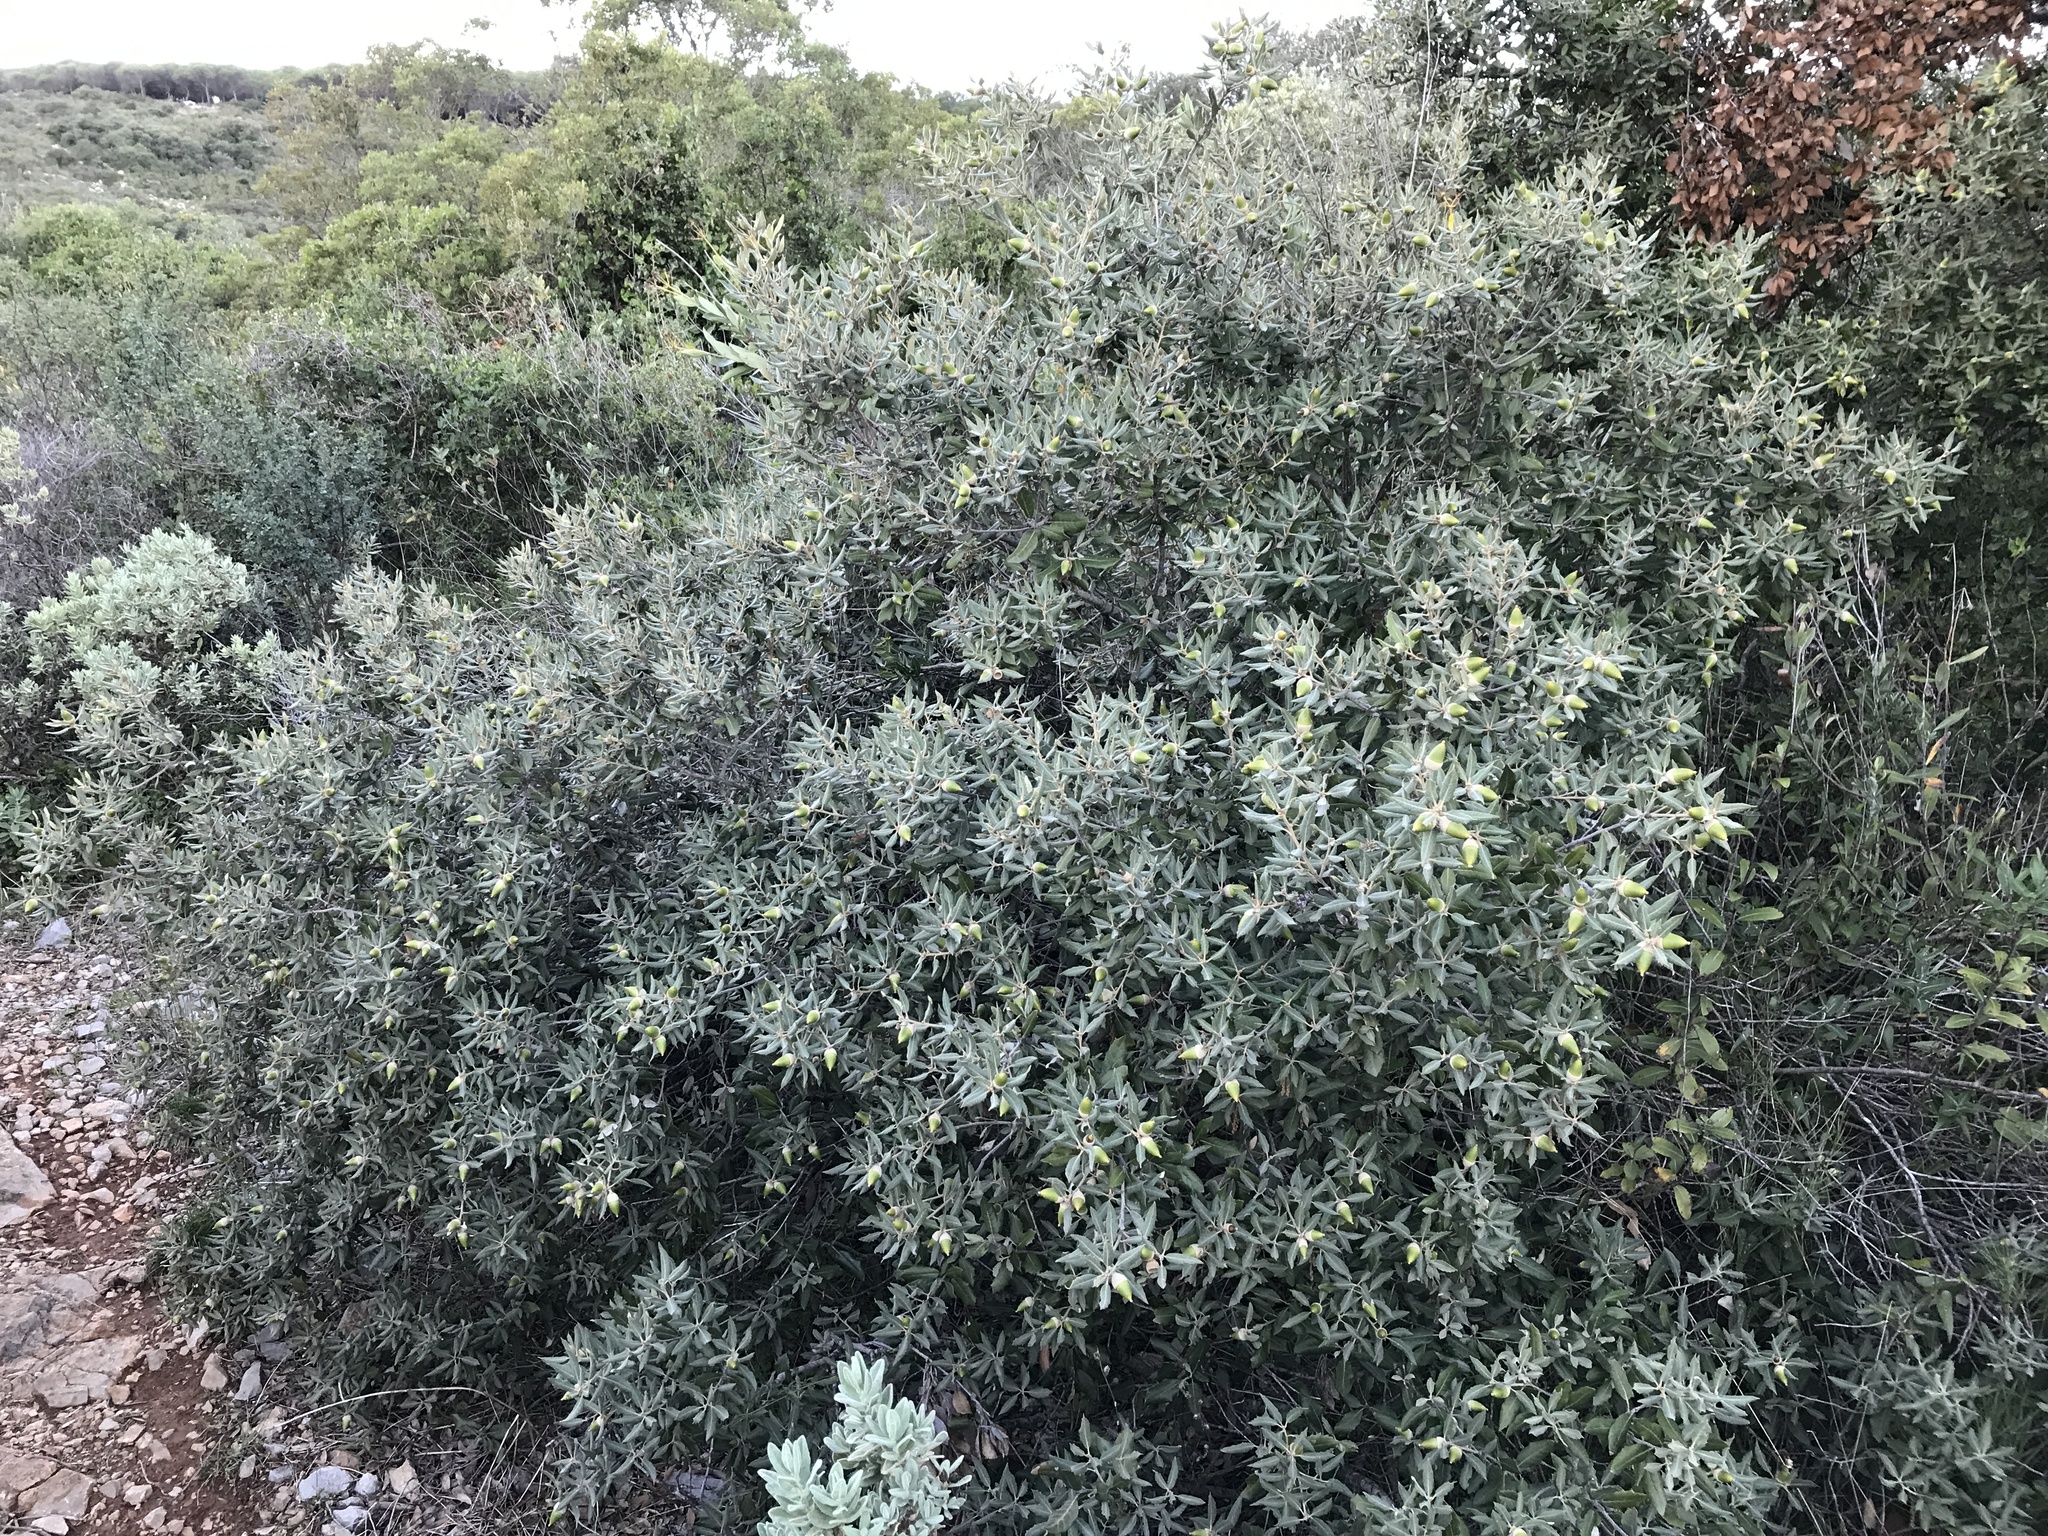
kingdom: Plantae
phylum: Tracheophyta
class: Magnoliopsida
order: Fagales
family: Fagaceae
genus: Quercus
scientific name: Quercus ilex
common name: Evergreen oak
